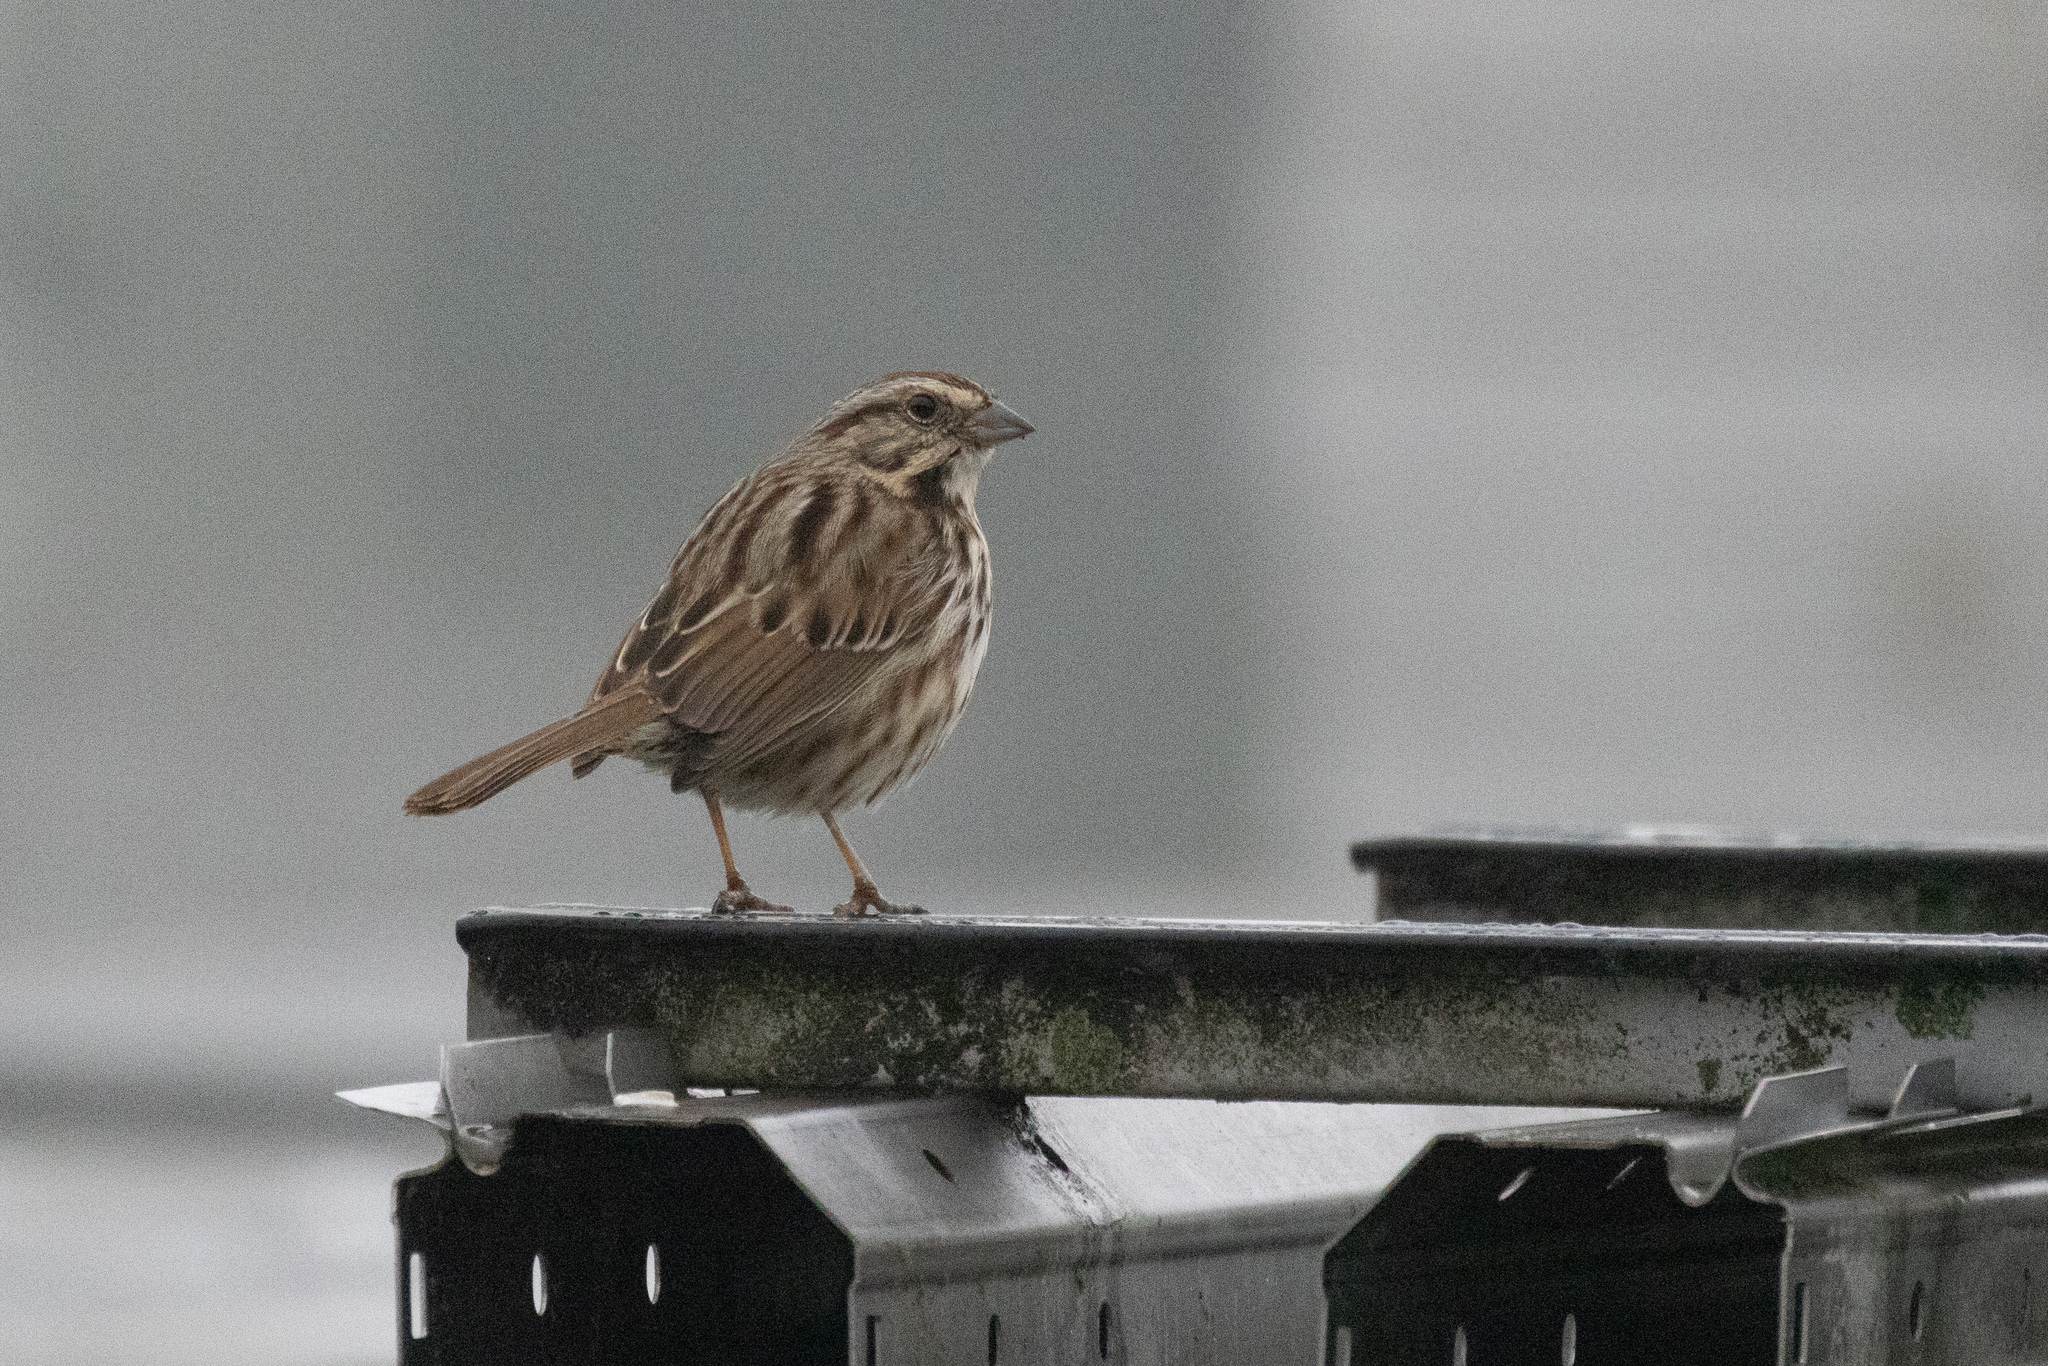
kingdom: Animalia
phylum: Chordata
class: Aves
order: Passeriformes
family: Passerellidae
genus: Melospiza
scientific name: Melospiza melodia
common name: Song sparrow
